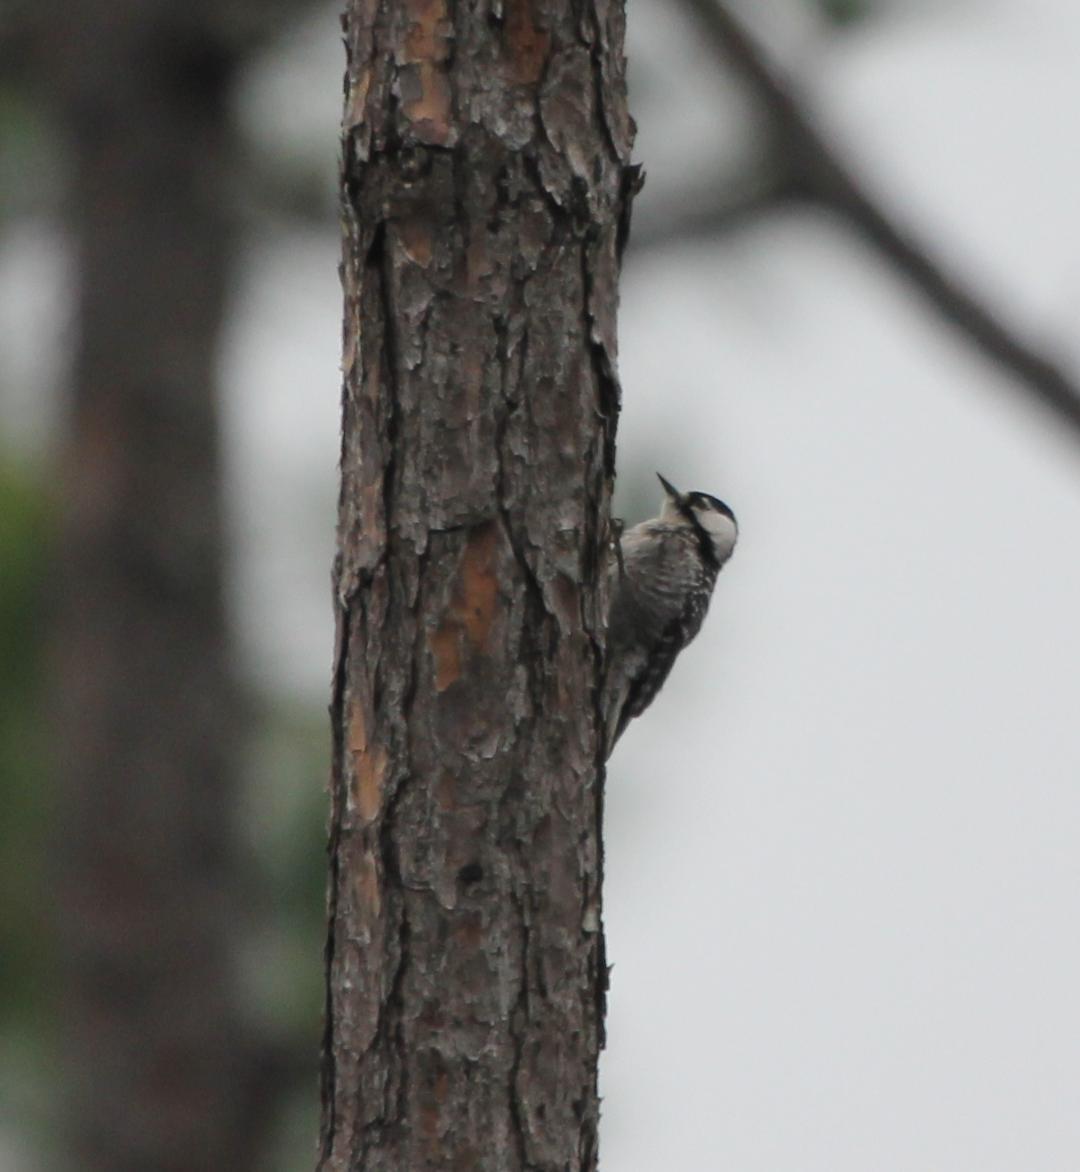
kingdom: Animalia
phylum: Chordata
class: Aves
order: Piciformes
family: Picidae
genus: Leuconotopicus
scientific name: Leuconotopicus borealis
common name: Red-cockaded woodpecker
